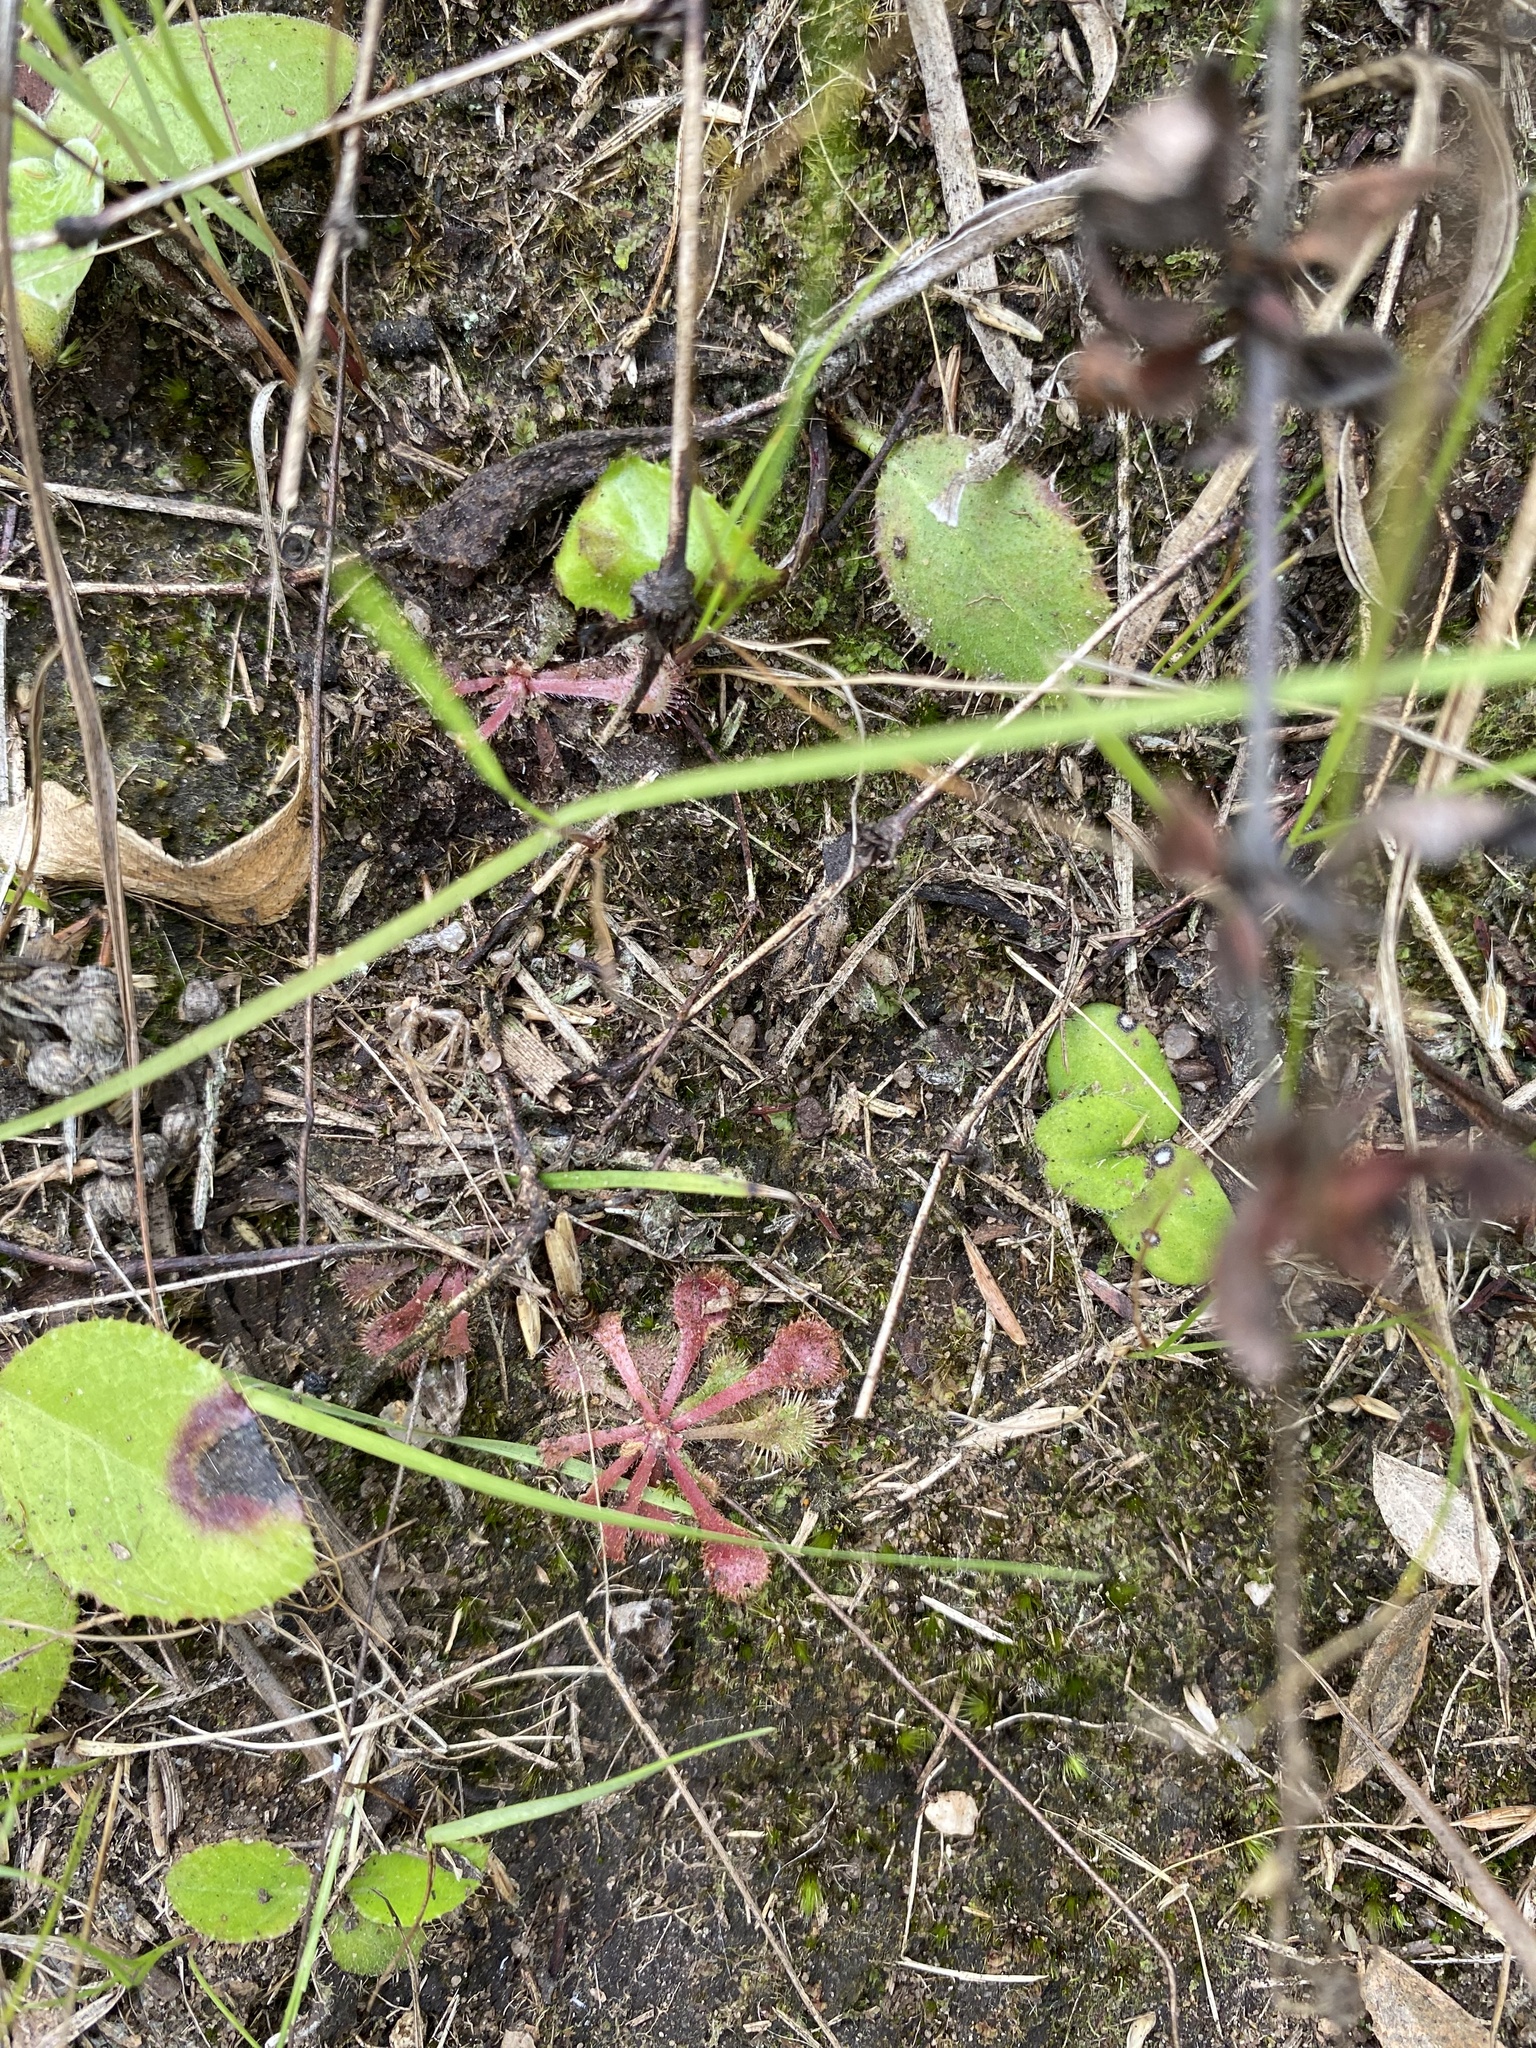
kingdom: Plantae
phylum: Tracheophyta
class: Magnoliopsida
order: Caryophyllales
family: Droseraceae
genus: Drosera
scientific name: Drosera natalensis
